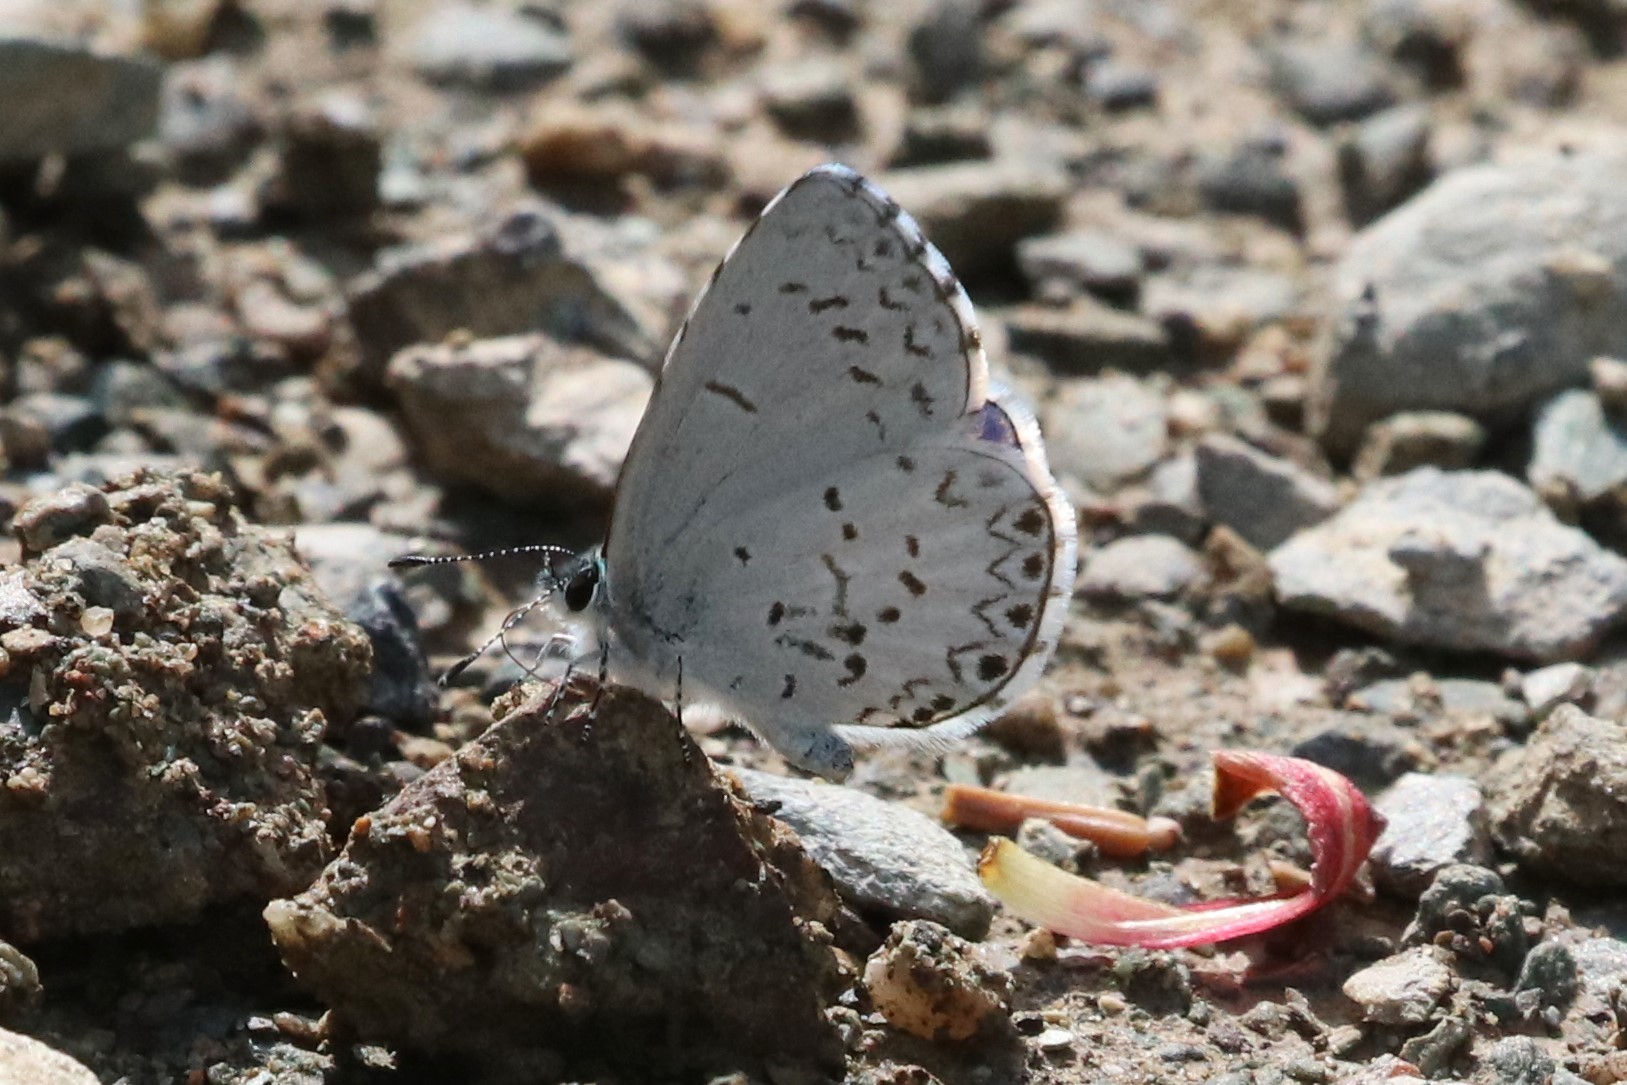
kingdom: Animalia
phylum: Arthropoda
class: Insecta
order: Lepidoptera
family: Lycaenidae
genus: Celastrina
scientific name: Celastrina lucia
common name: Lucia azure
